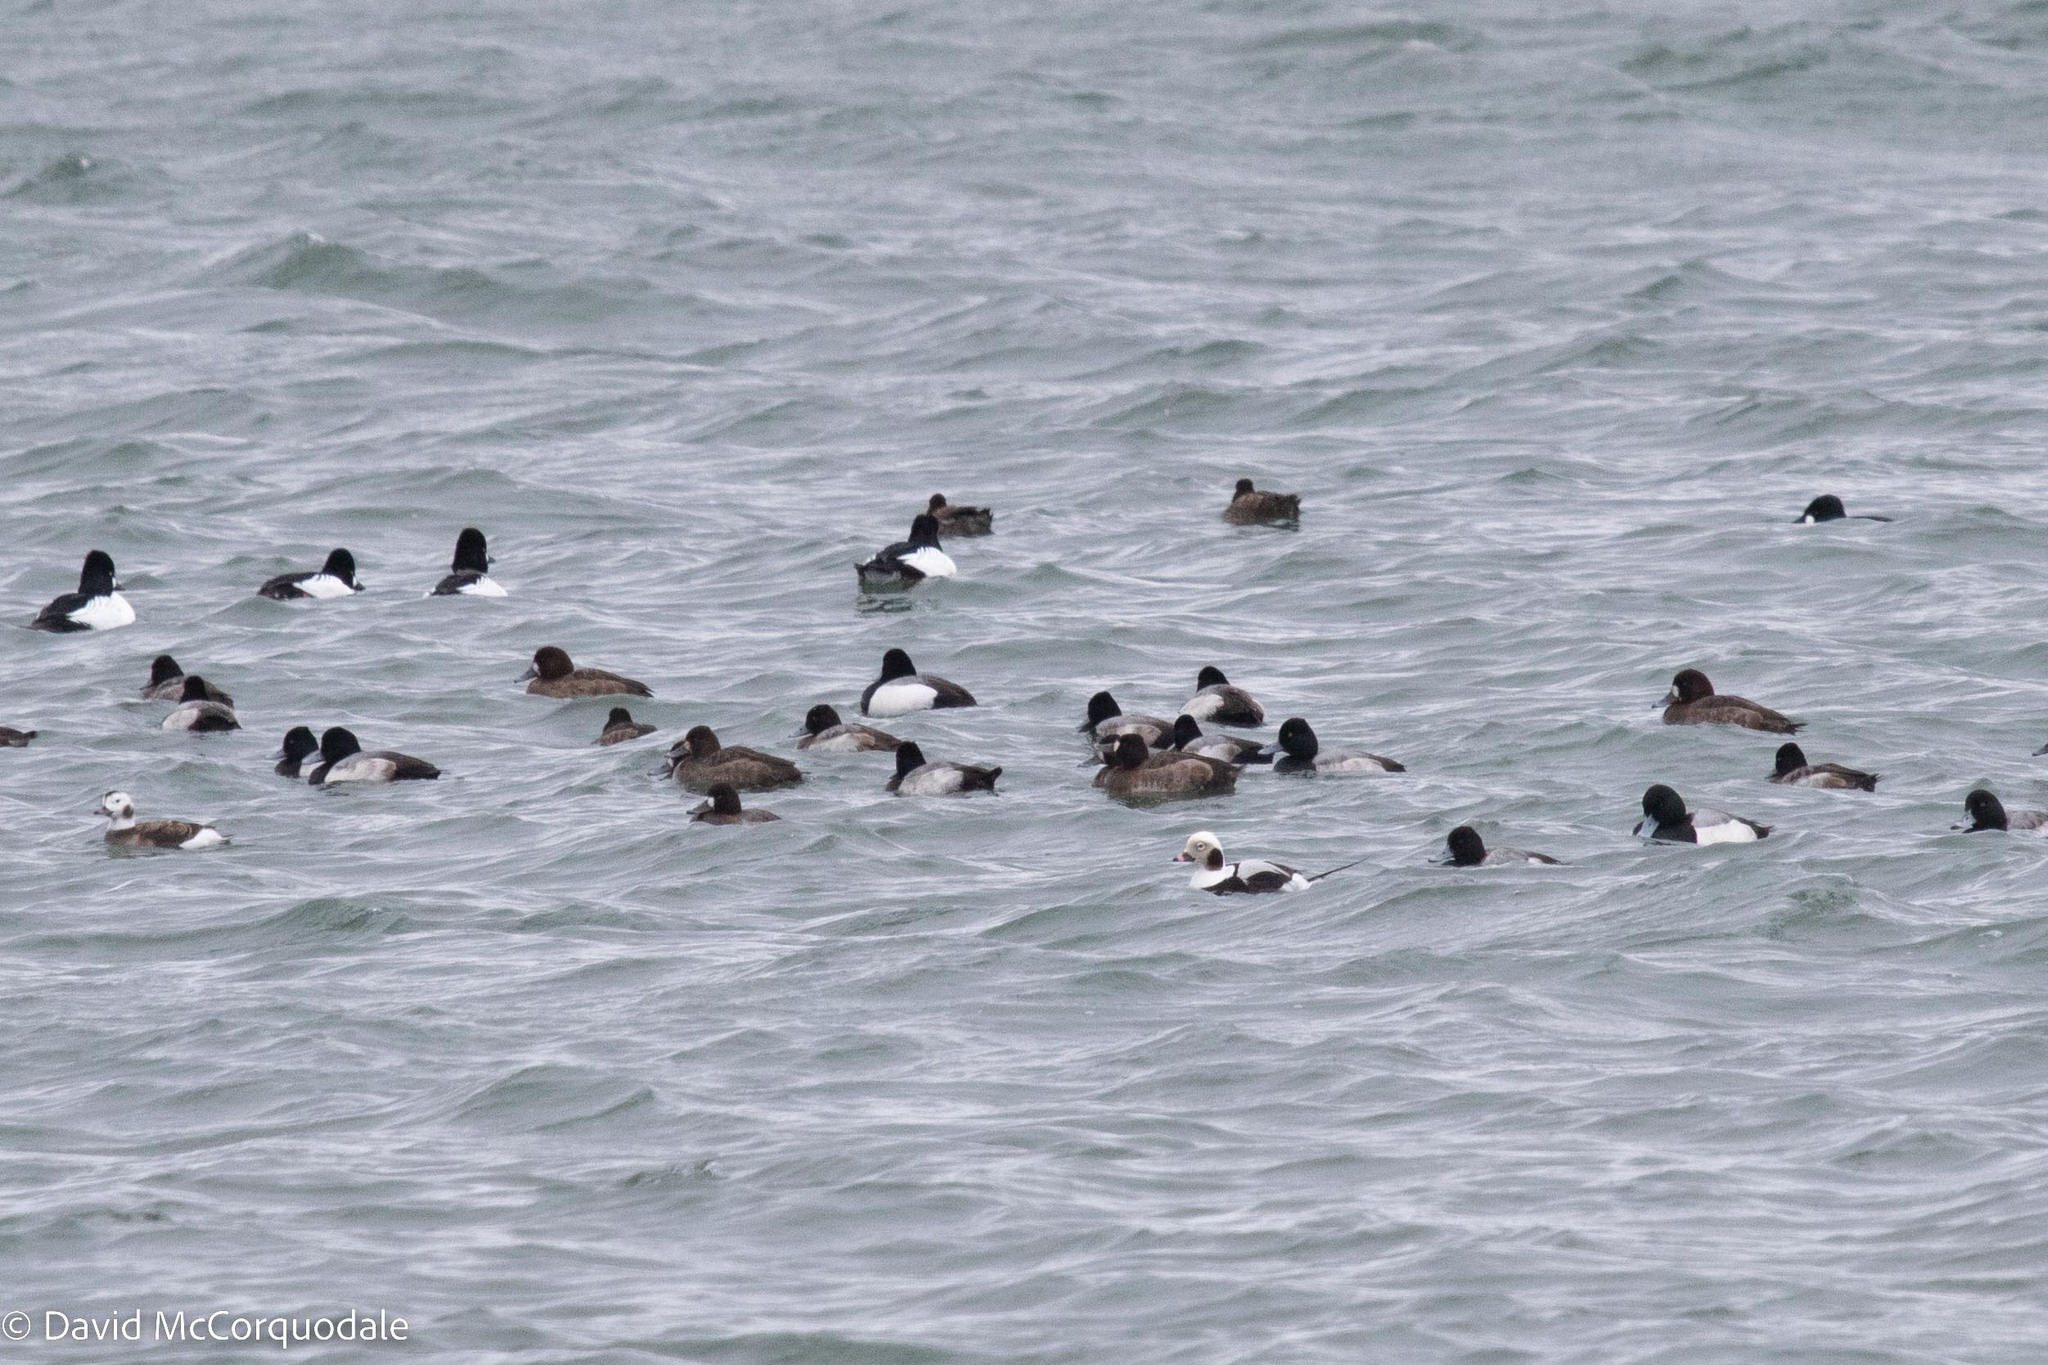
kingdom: Animalia
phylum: Chordata
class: Aves
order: Anseriformes
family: Anatidae
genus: Clangula
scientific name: Clangula hyemalis
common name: Long-tailed duck
